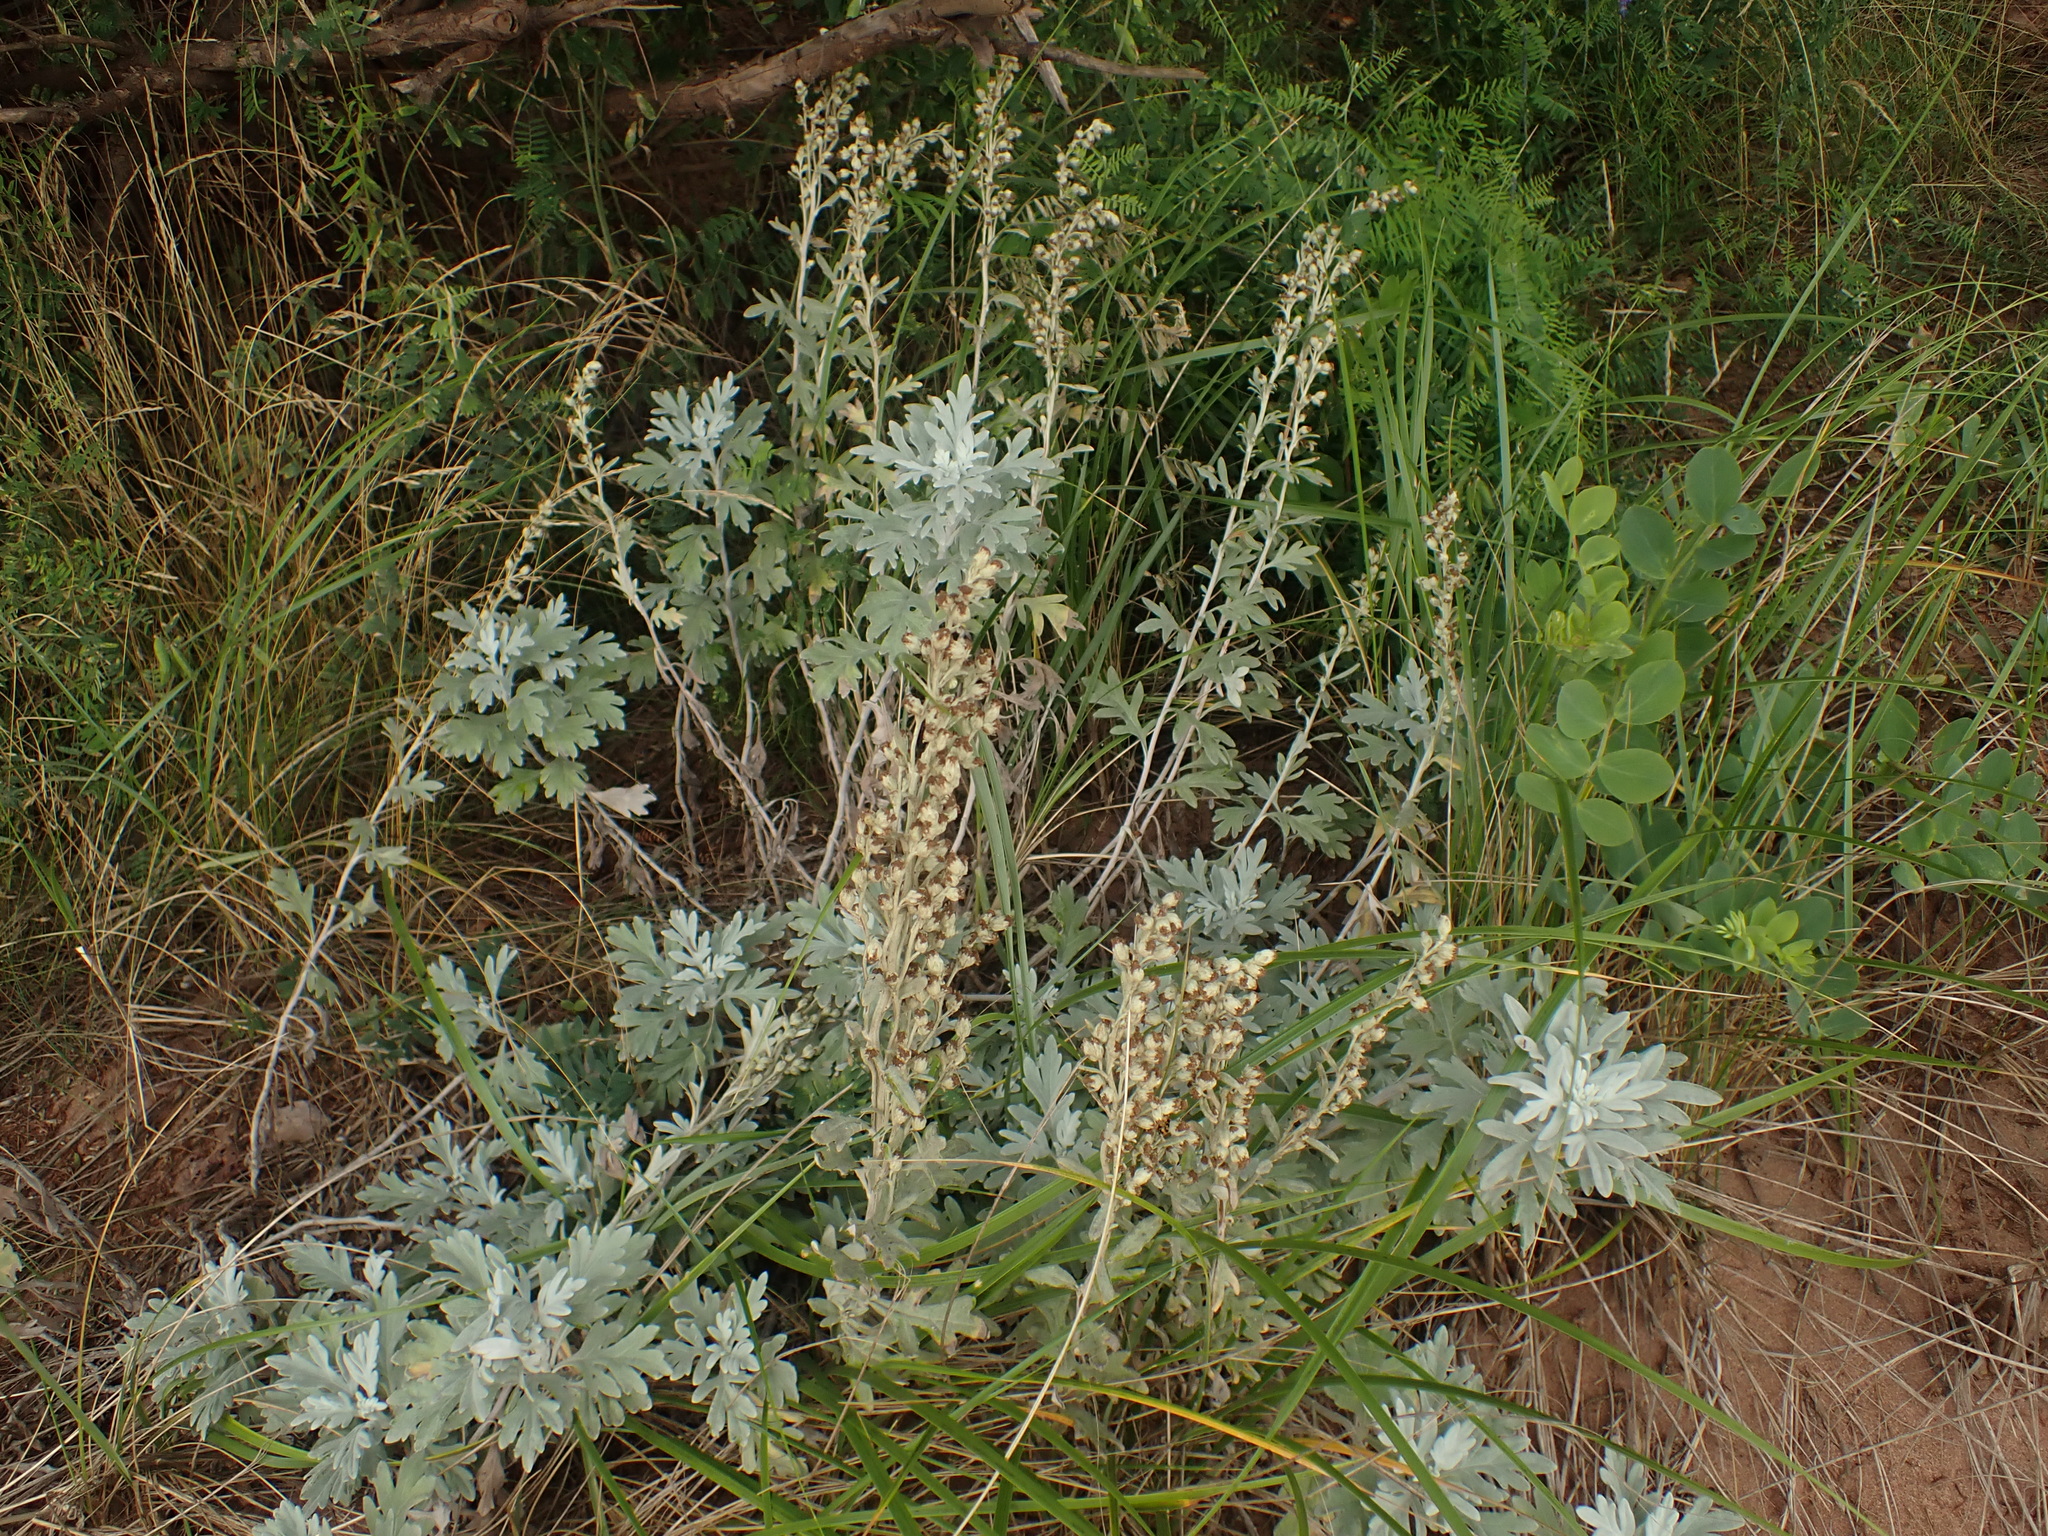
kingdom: Plantae
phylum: Tracheophyta
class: Magnoliopsida
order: Asterales
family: Asteraceae
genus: Artemisia
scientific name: Artemisia stelleriana
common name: Beach wormwood
